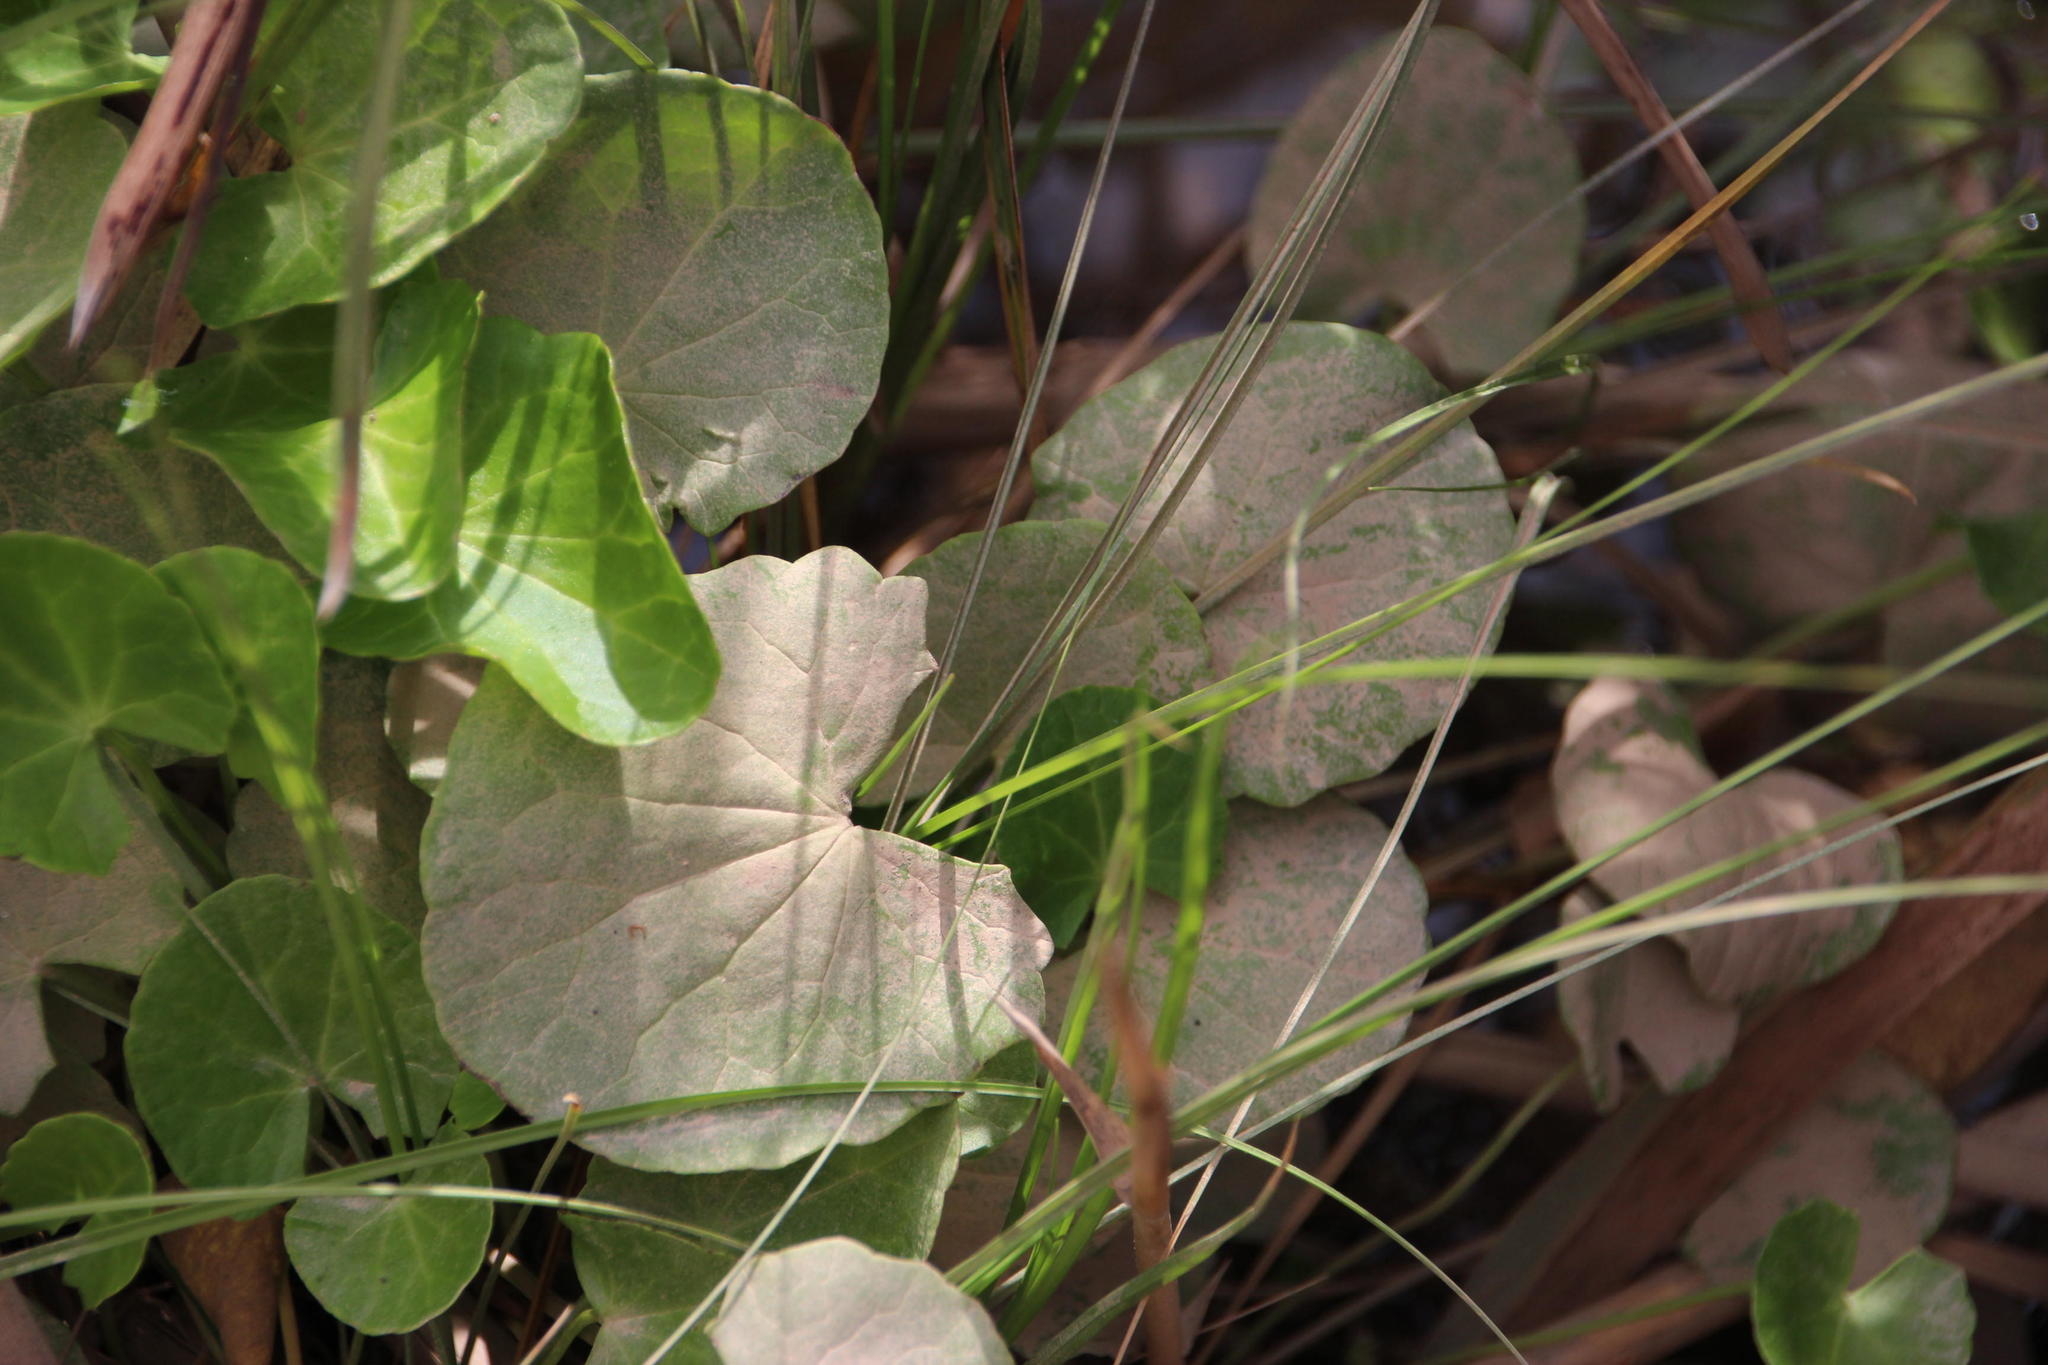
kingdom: Plantae
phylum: Tracheophyta
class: Magnoliopsida
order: Apiales
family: Apiaceae
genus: Centella
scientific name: Centella asiatica
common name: Spadeleaf
